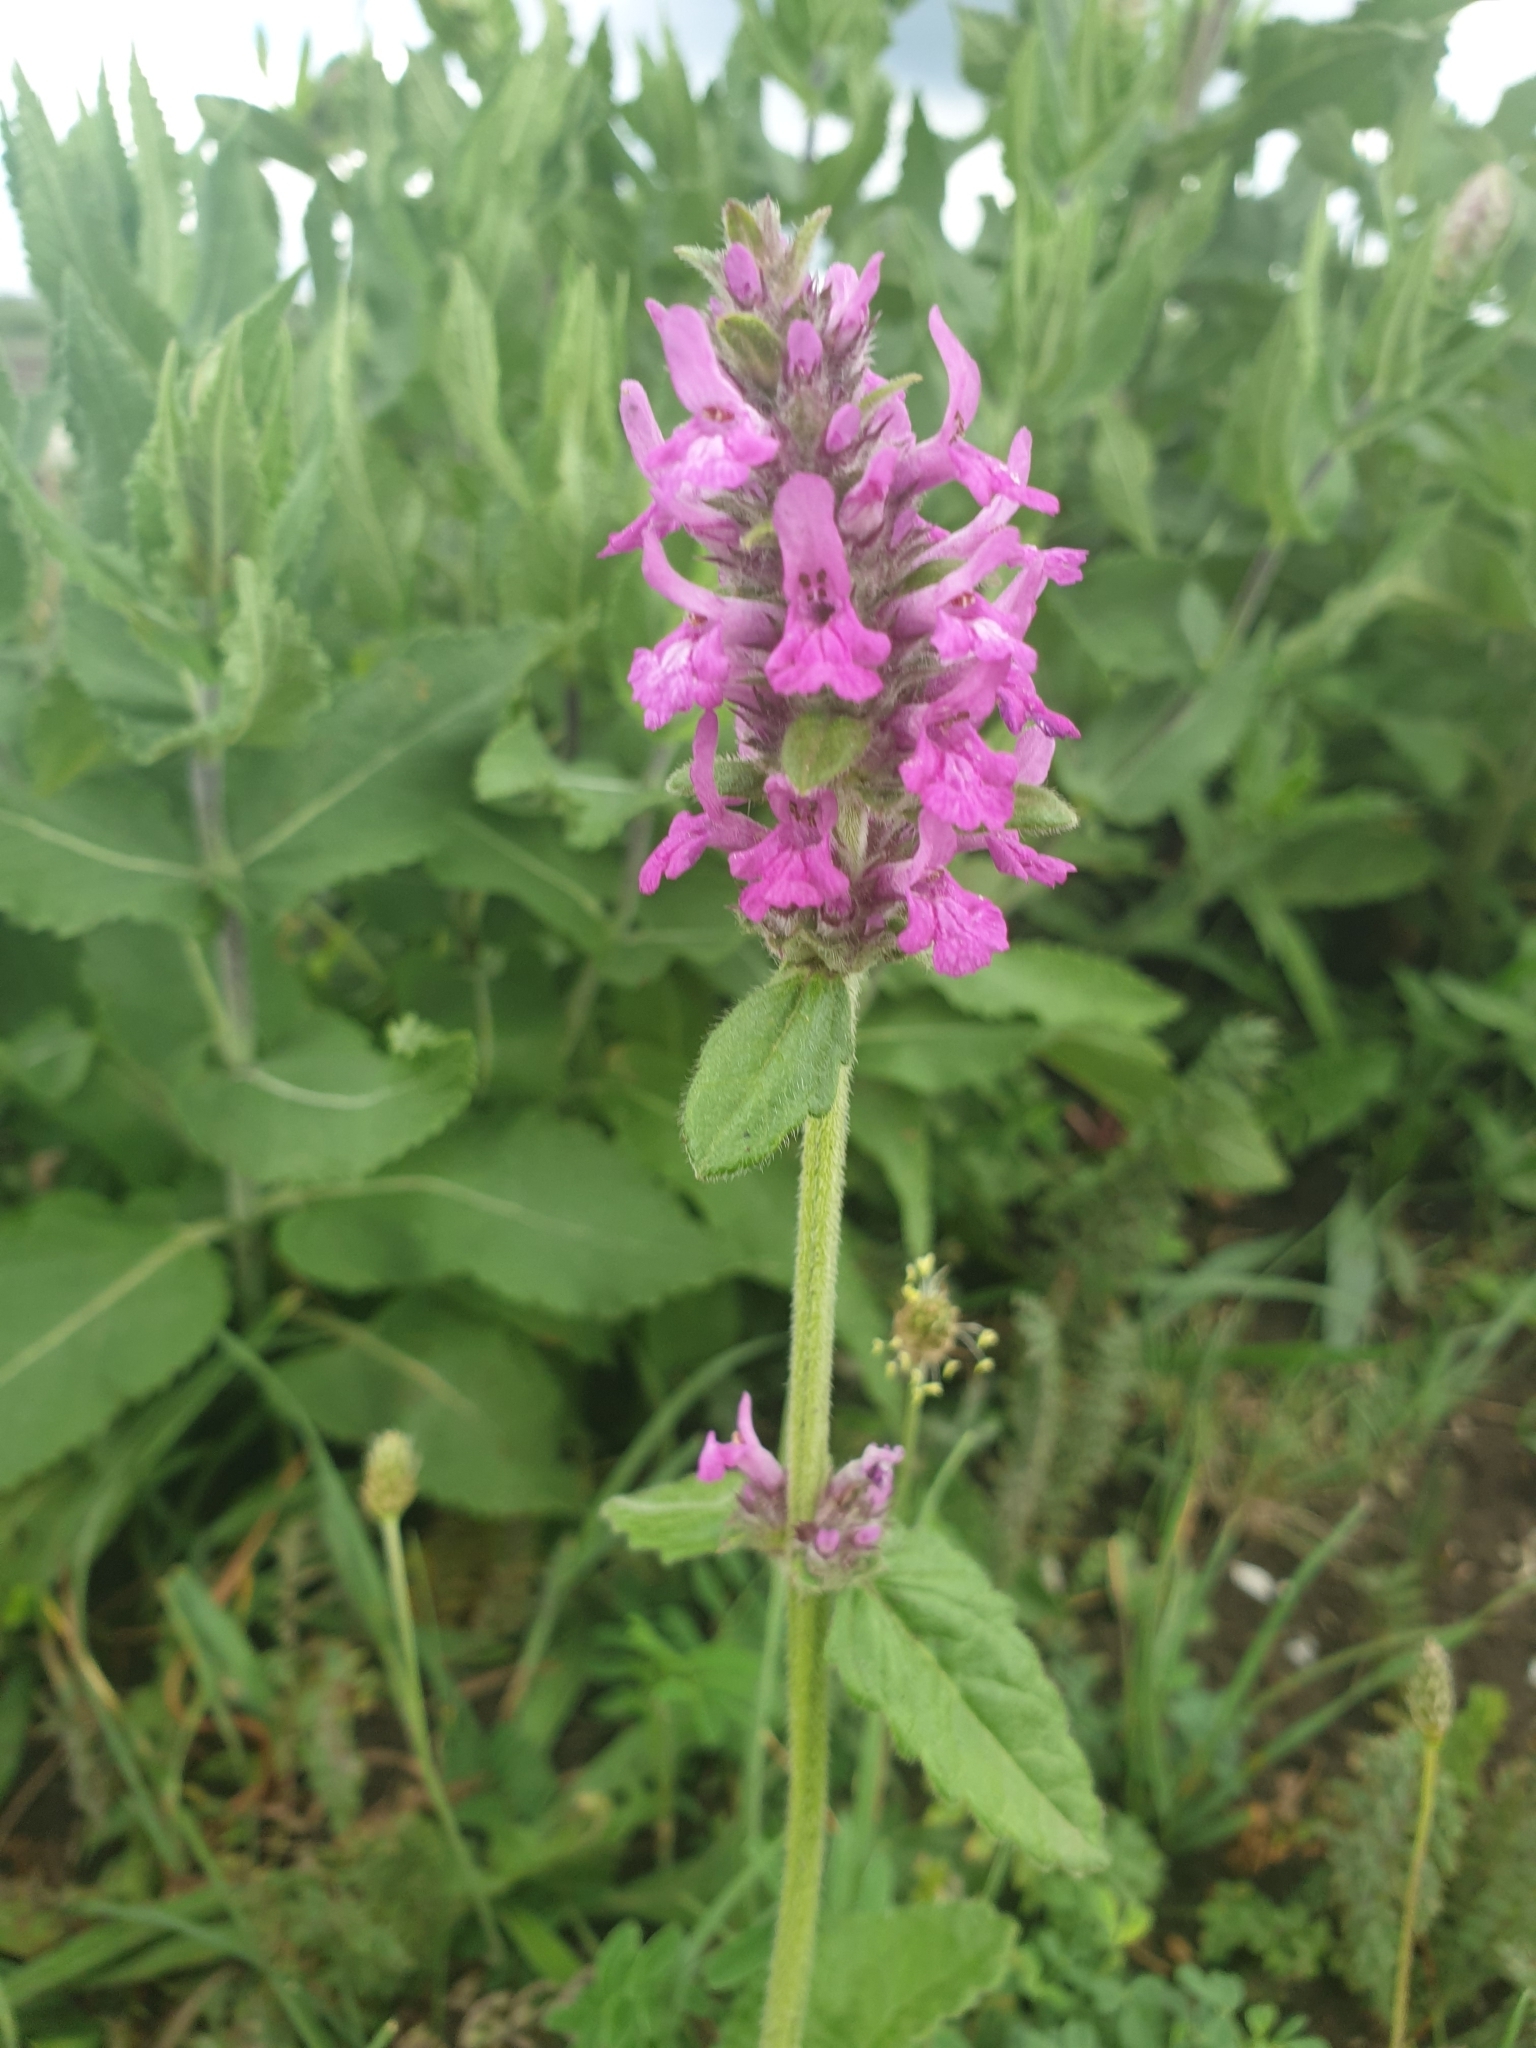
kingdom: Plantae
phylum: Tracheophyta
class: Magnoliopsida
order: Lamiales
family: Lamiaceae
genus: Betonica
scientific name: Betonica officinalis
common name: Bishop's-wort
